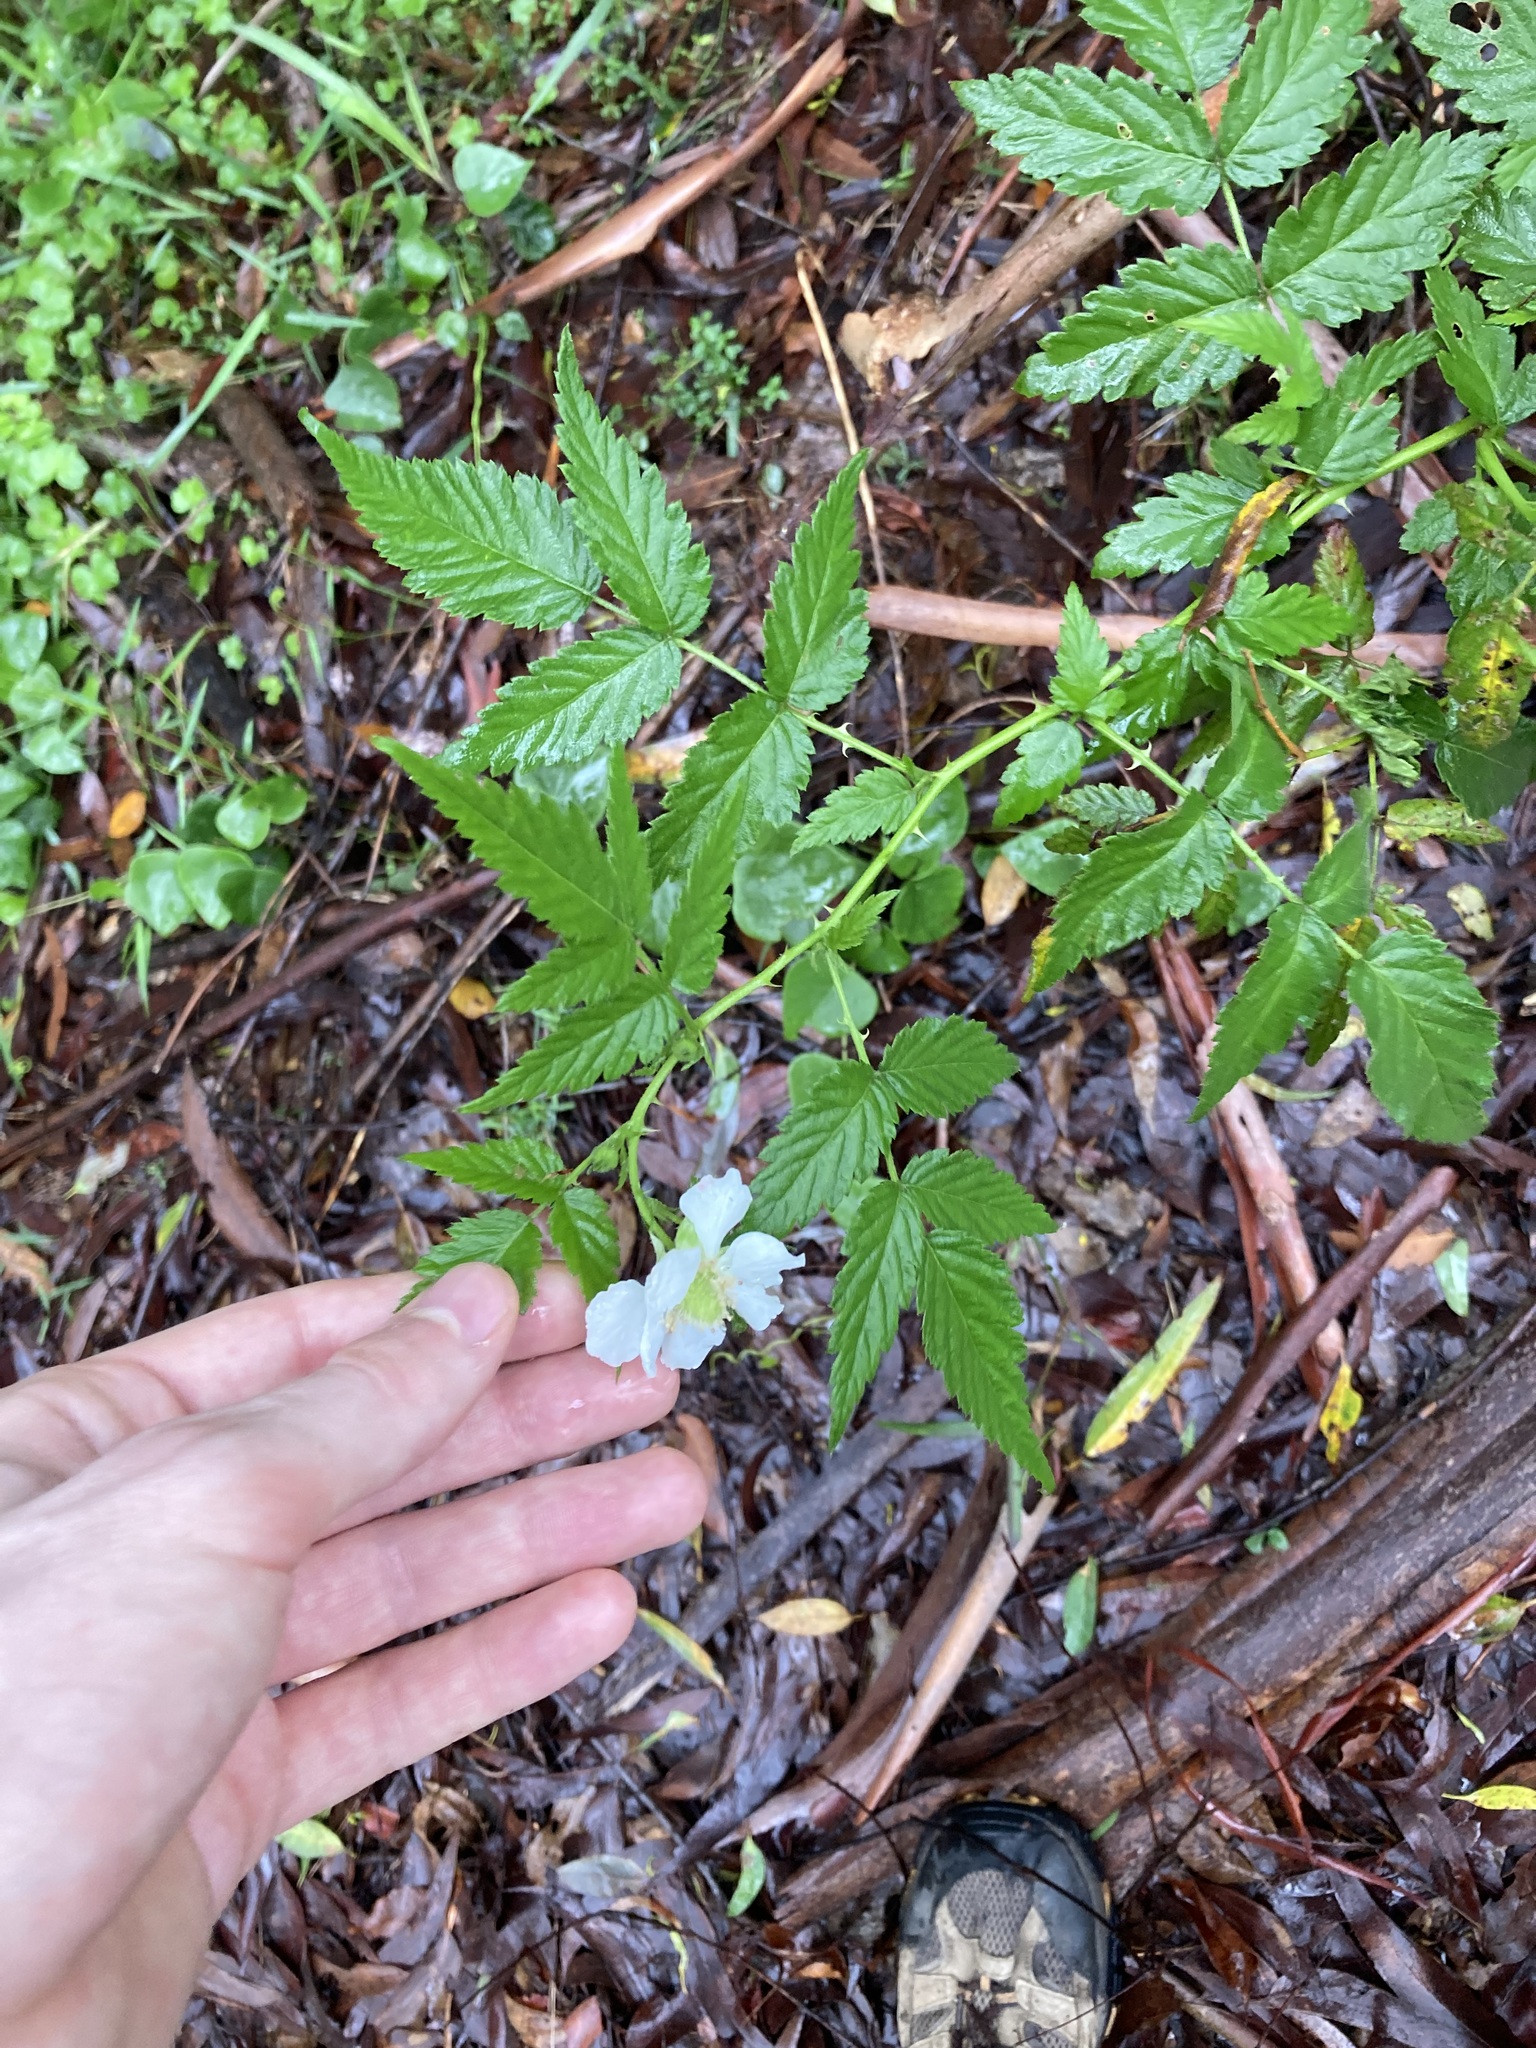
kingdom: Plantae
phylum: Tracheophyta
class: Magnoliopsida
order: Rosales
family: Rosaceae
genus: Rubus
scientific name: Rubus rosifolius
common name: Roseleaf raspberry
